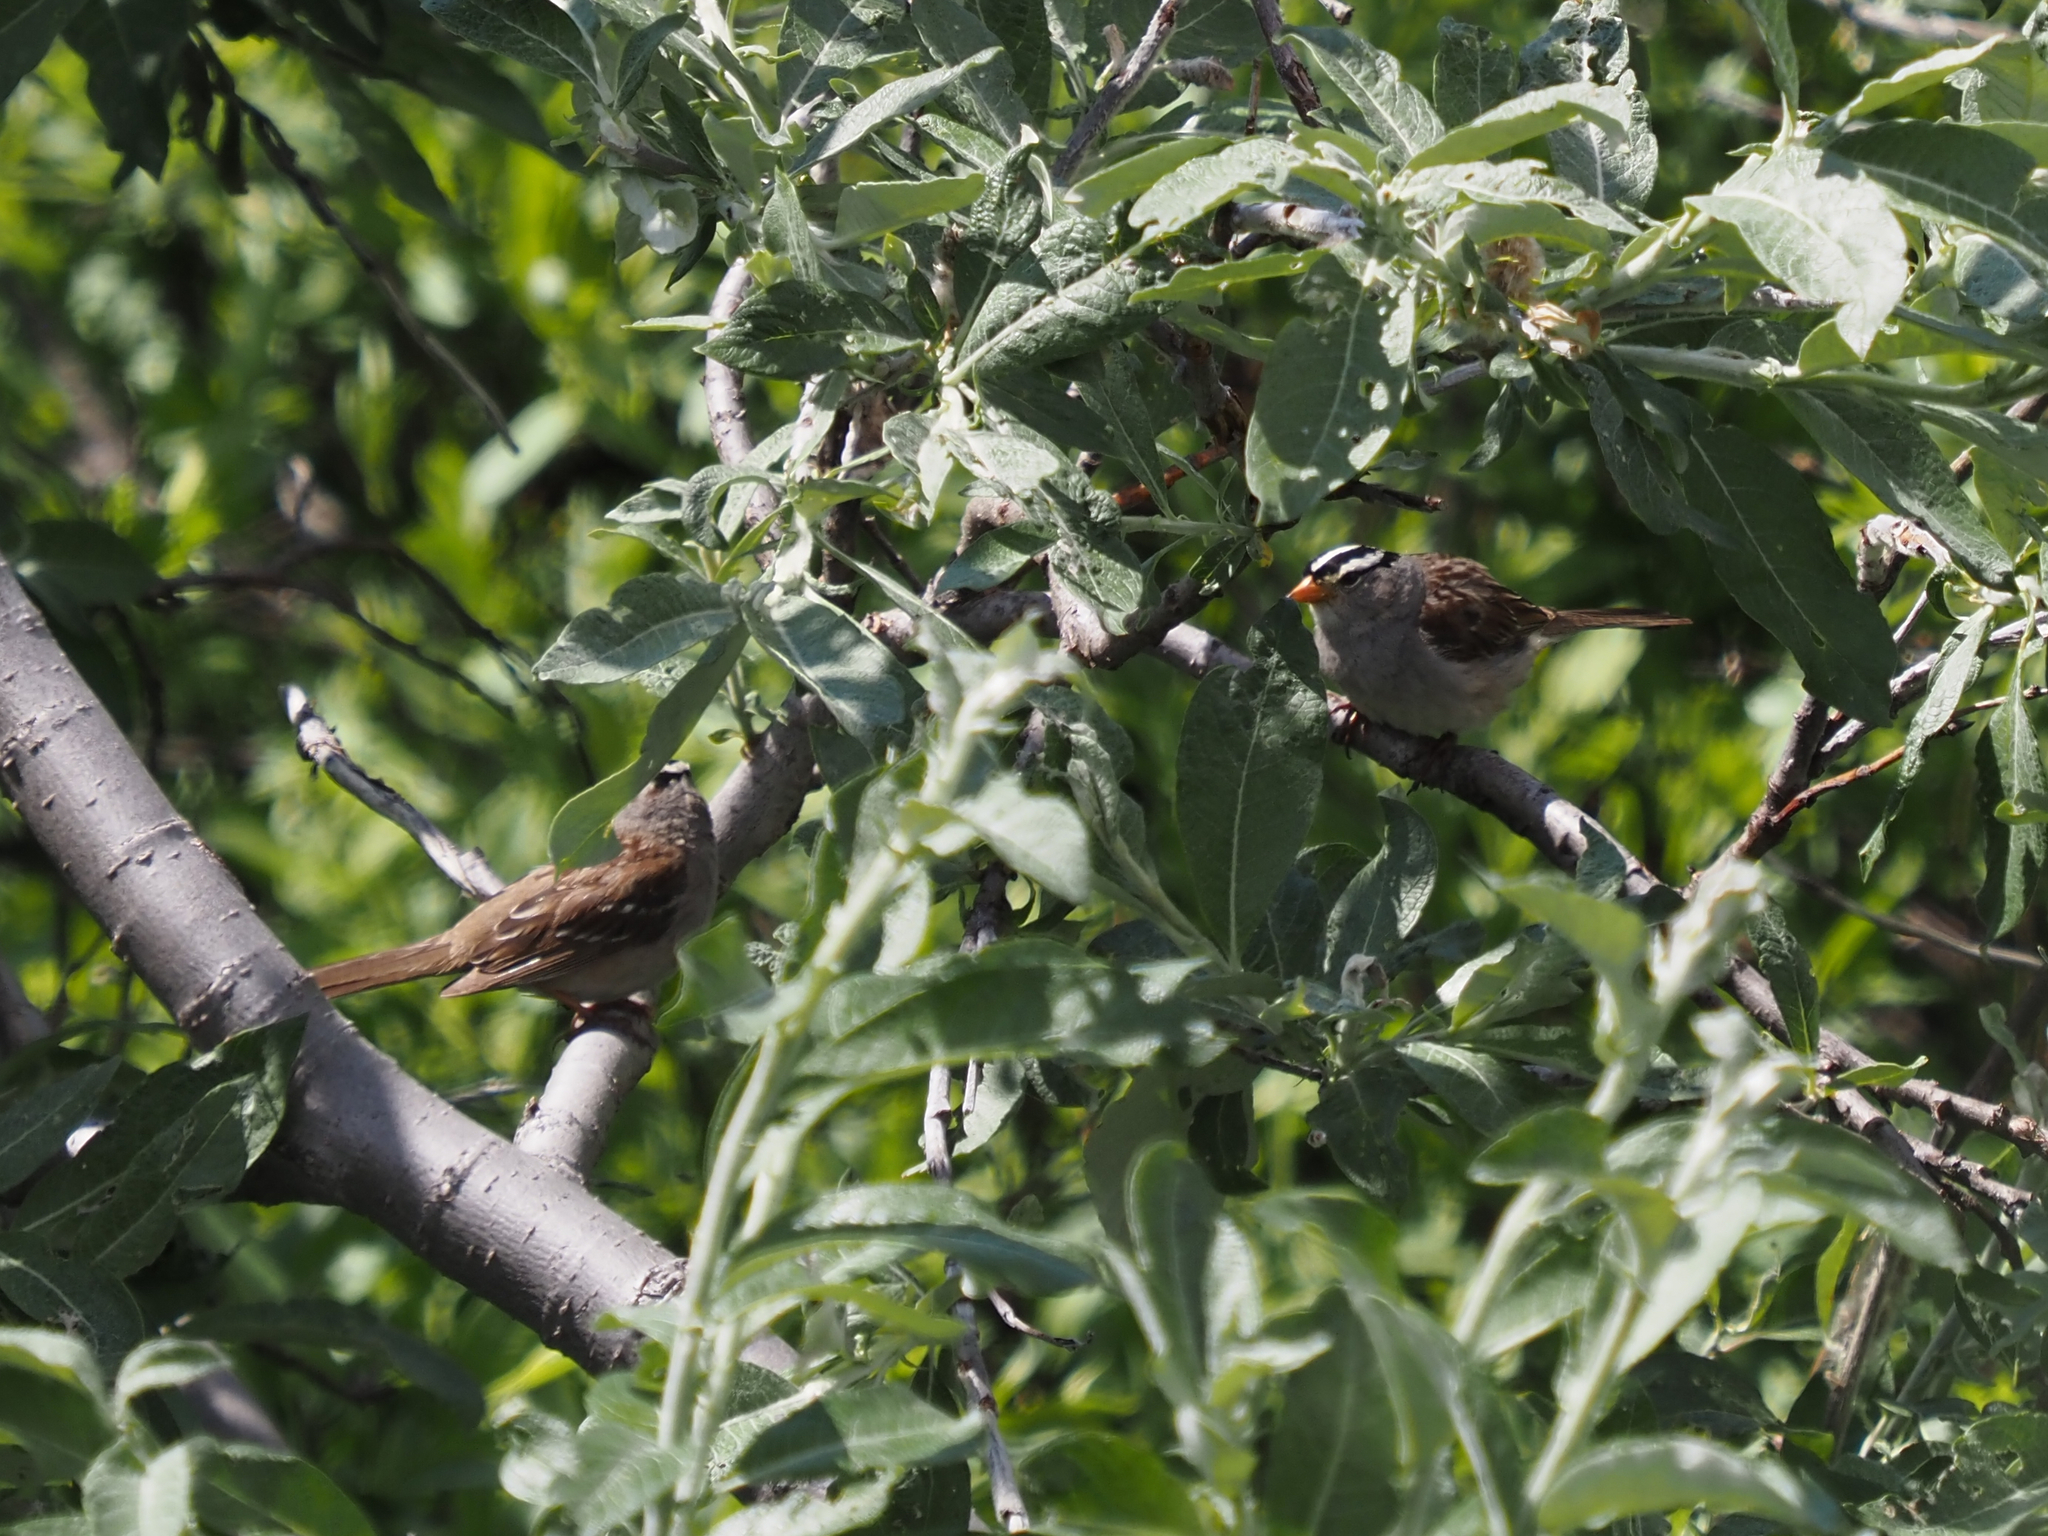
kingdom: Animalia
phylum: Chordata
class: Aves
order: Passeriformes
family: Passerellidae
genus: Zonotrichia
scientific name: Zonotrichia leucophrys
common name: White-crowned sparrow
